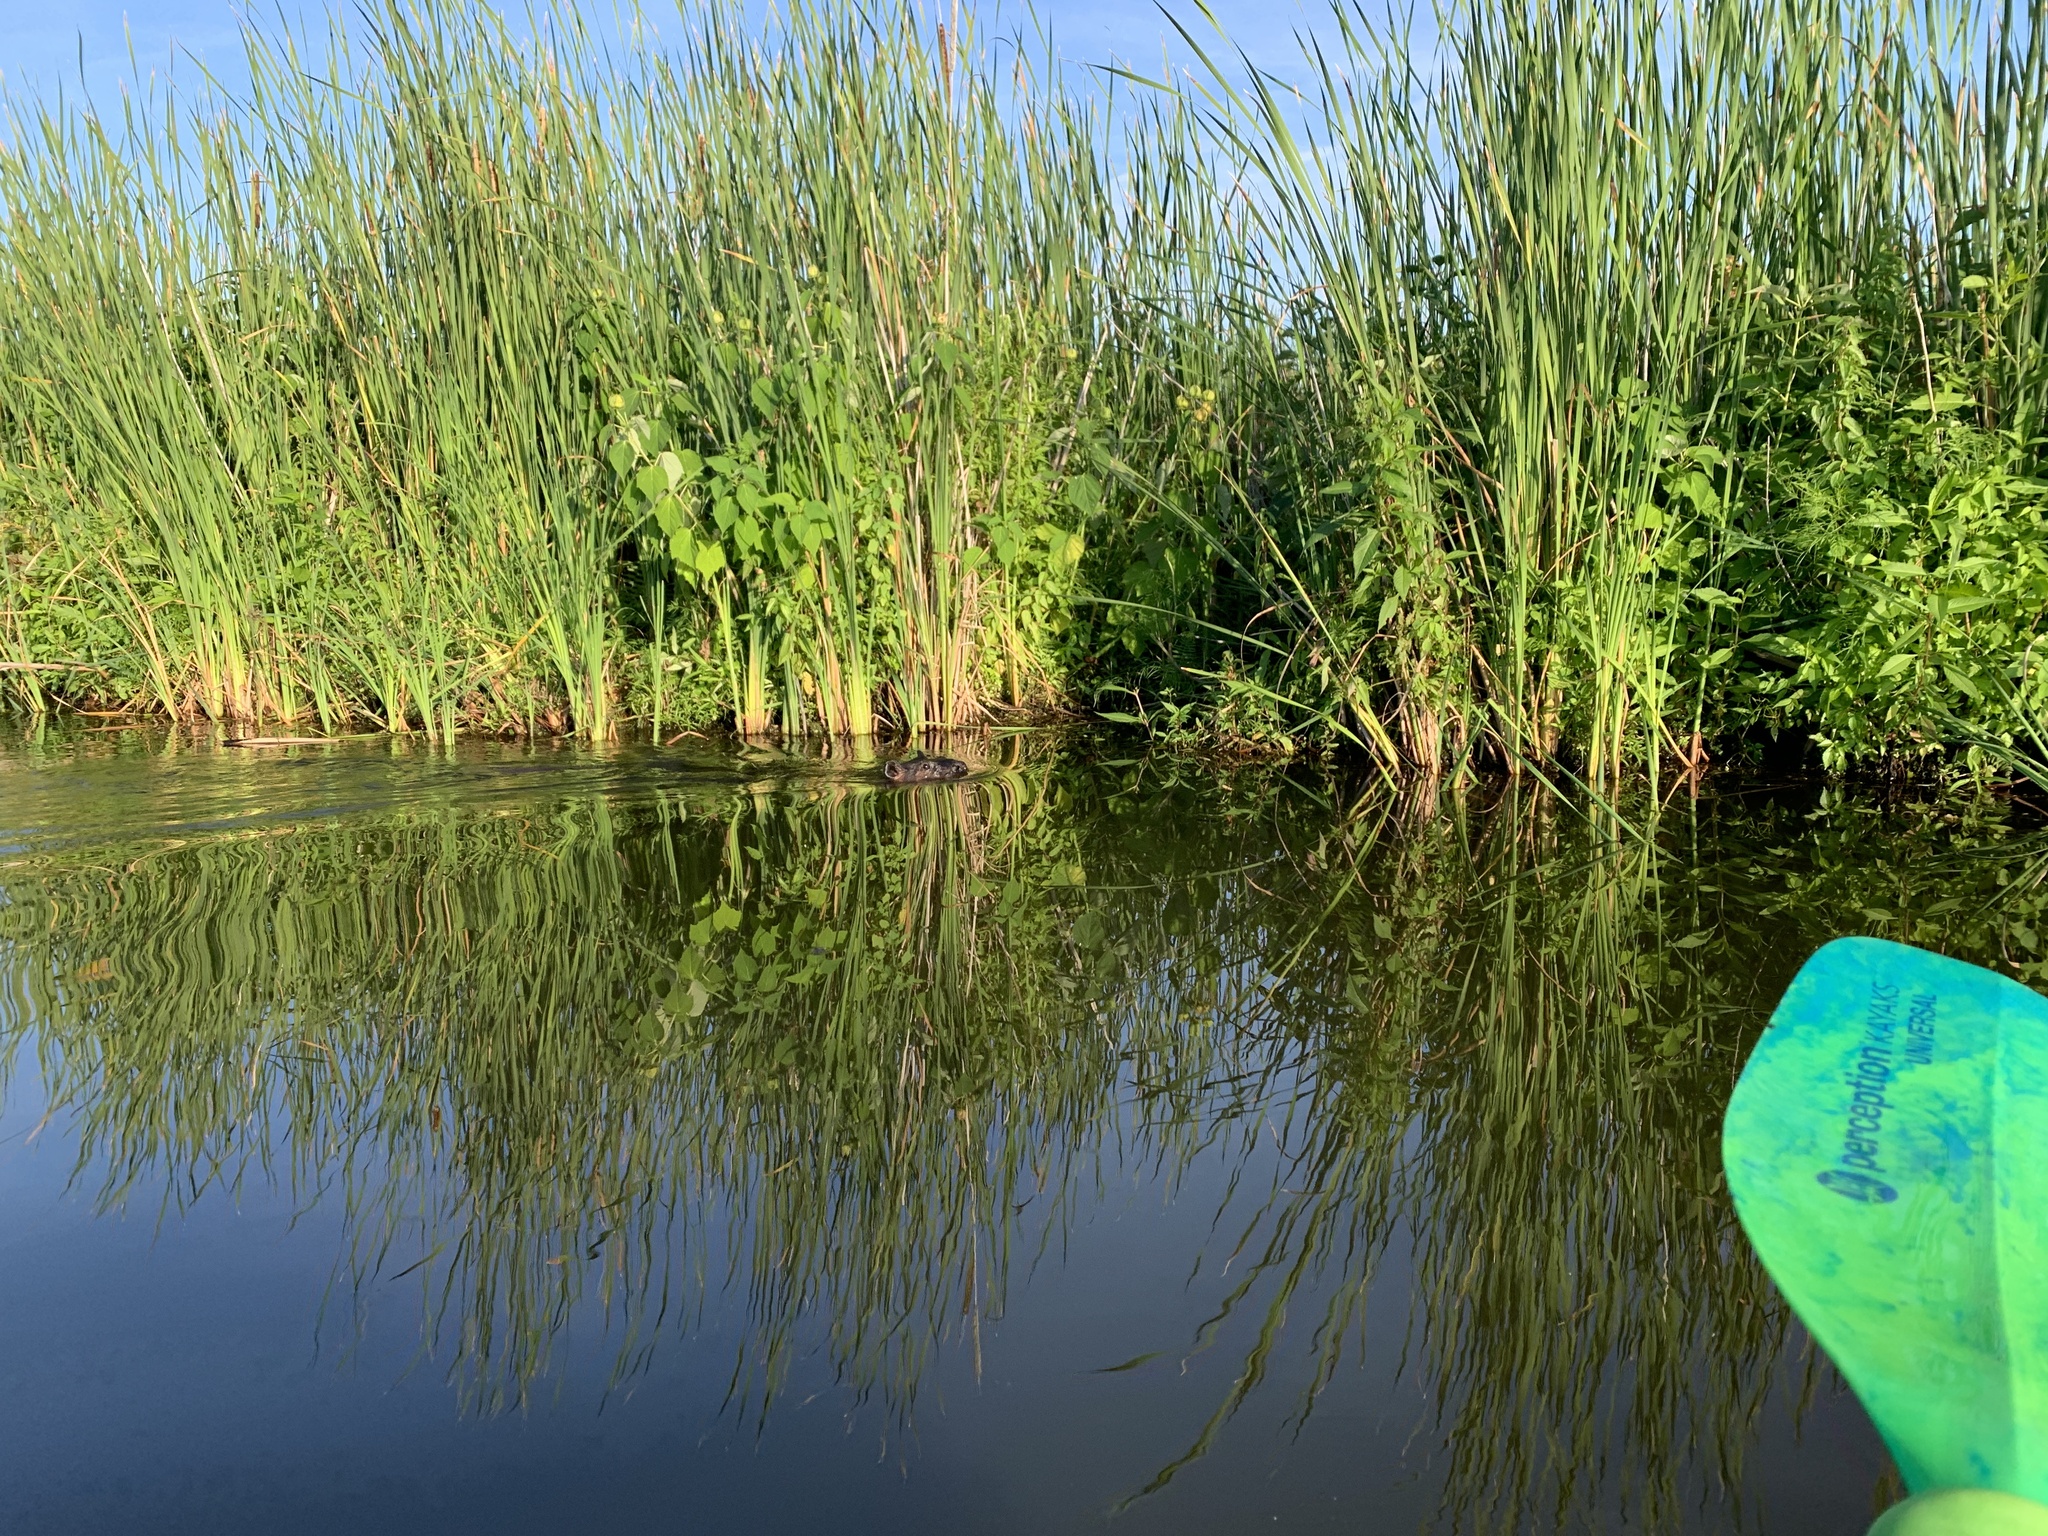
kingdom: Animalia
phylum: Chordata
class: Mammalia
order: Rodentia
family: Castoridae
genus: Castor
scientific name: Castor canadensis
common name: American beaver
